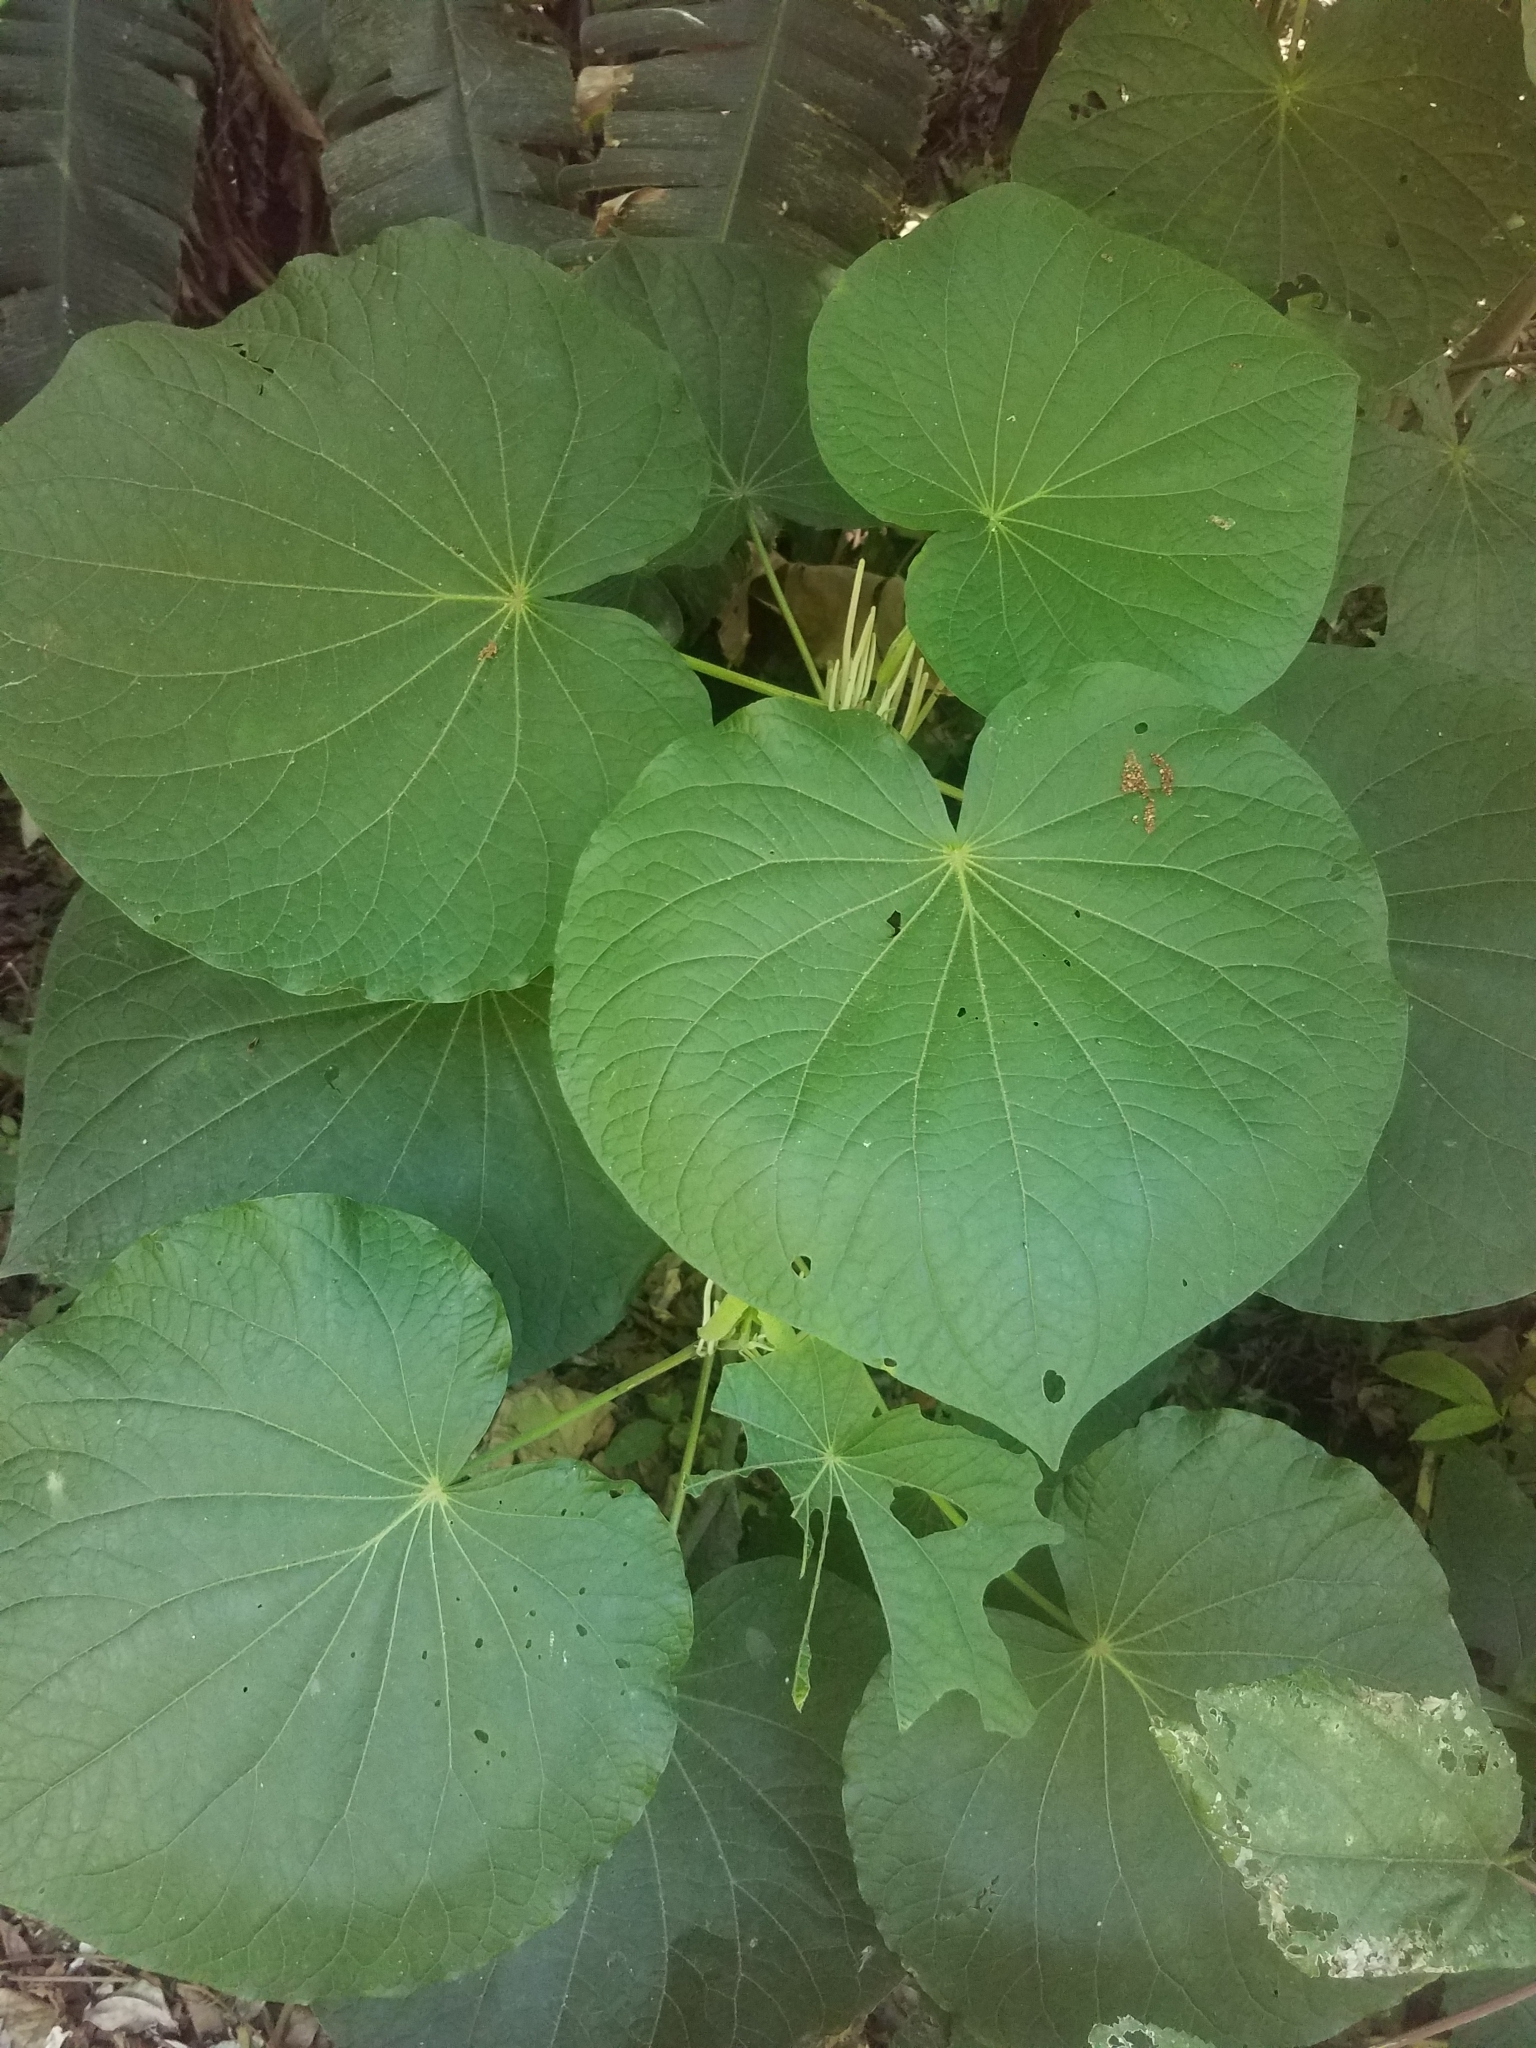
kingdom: Plantae
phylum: Tracheophyta
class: Magnoliopsida
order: Piperales
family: Piperaceae
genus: Piper
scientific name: Piper umbellatum
